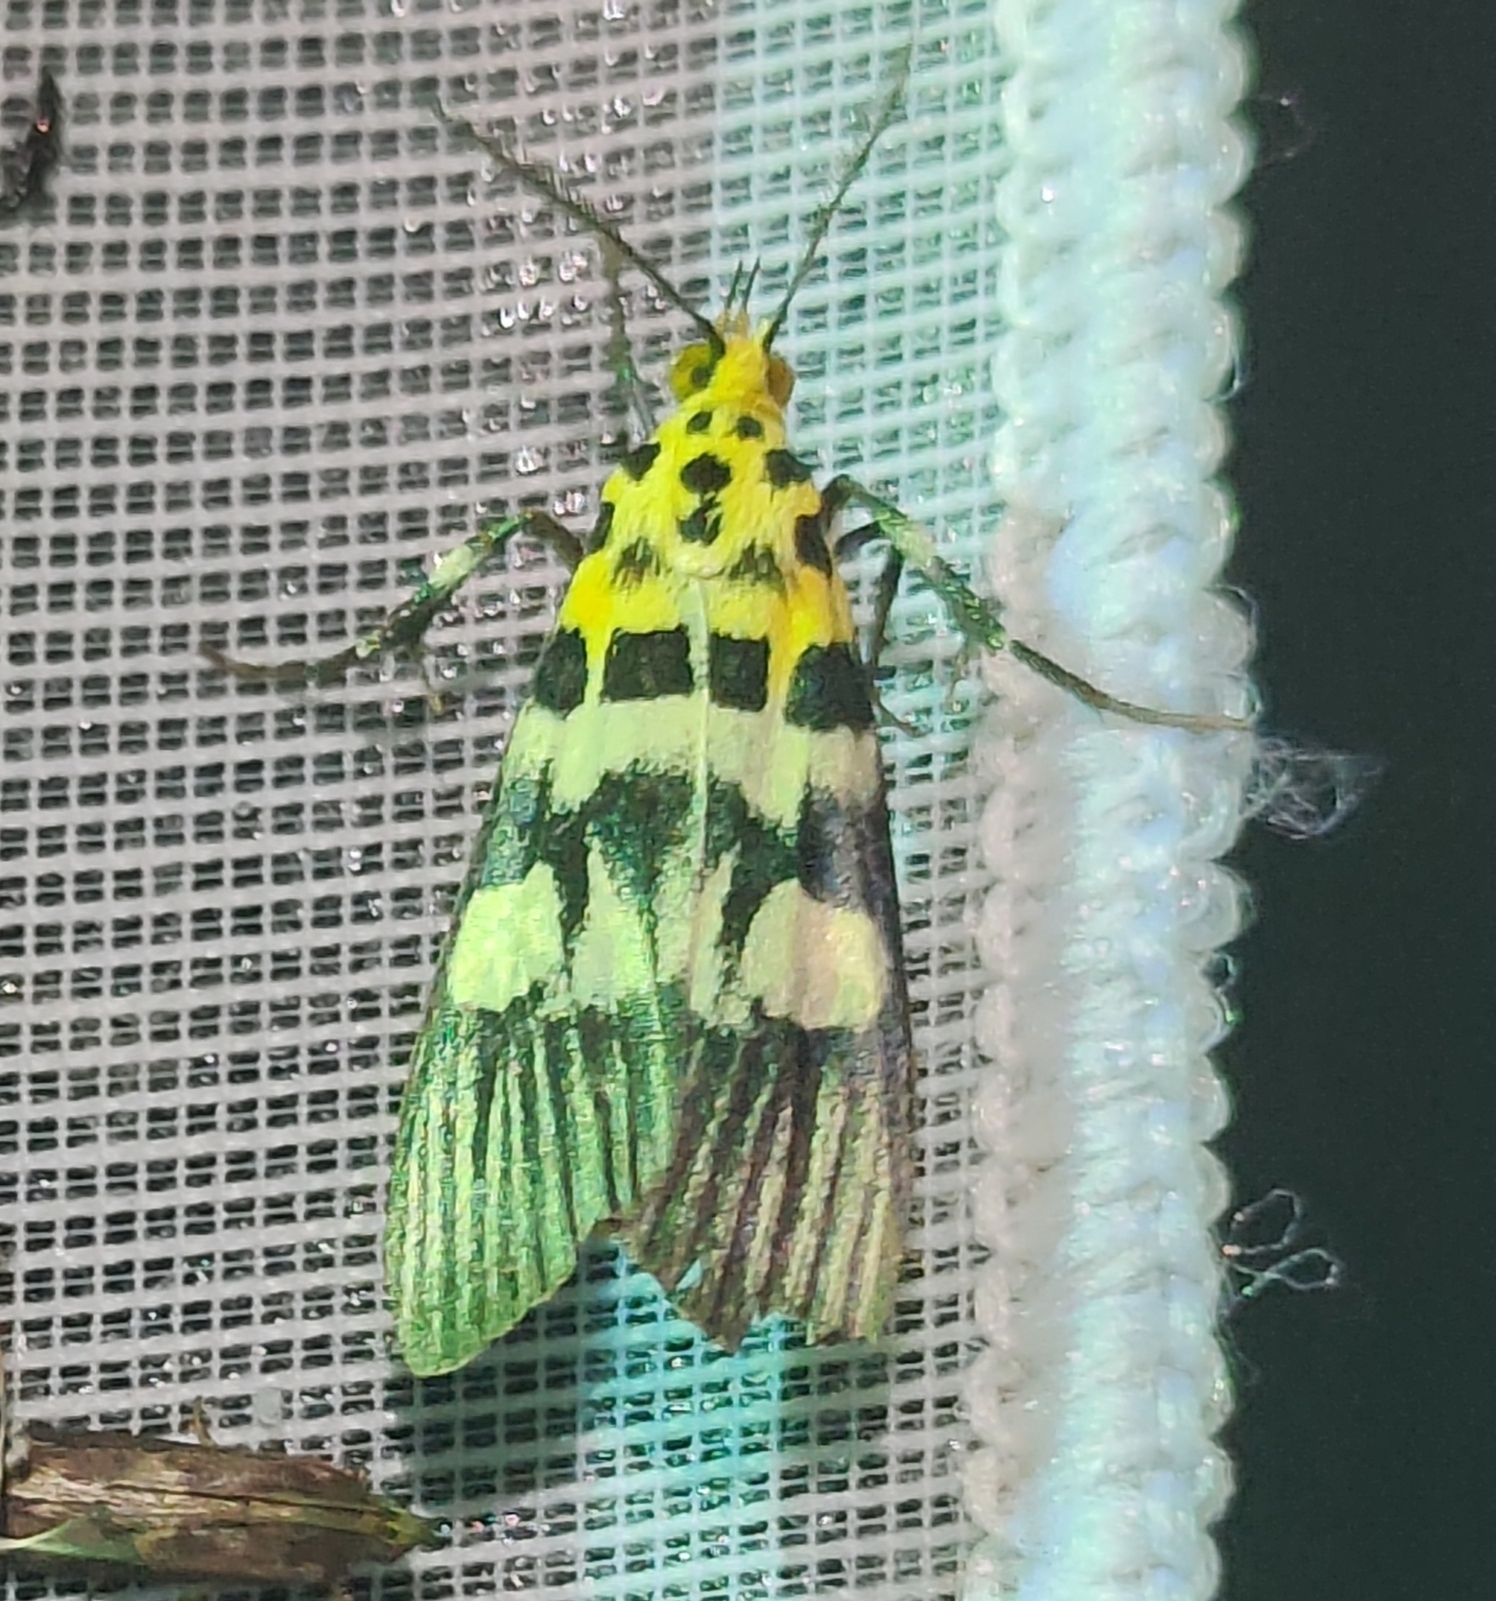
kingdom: Animalia
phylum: Arthropoda
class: Insecta
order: Lepidoptera
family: Pyralidae
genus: Vitessa
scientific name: Vitessa suradeva
